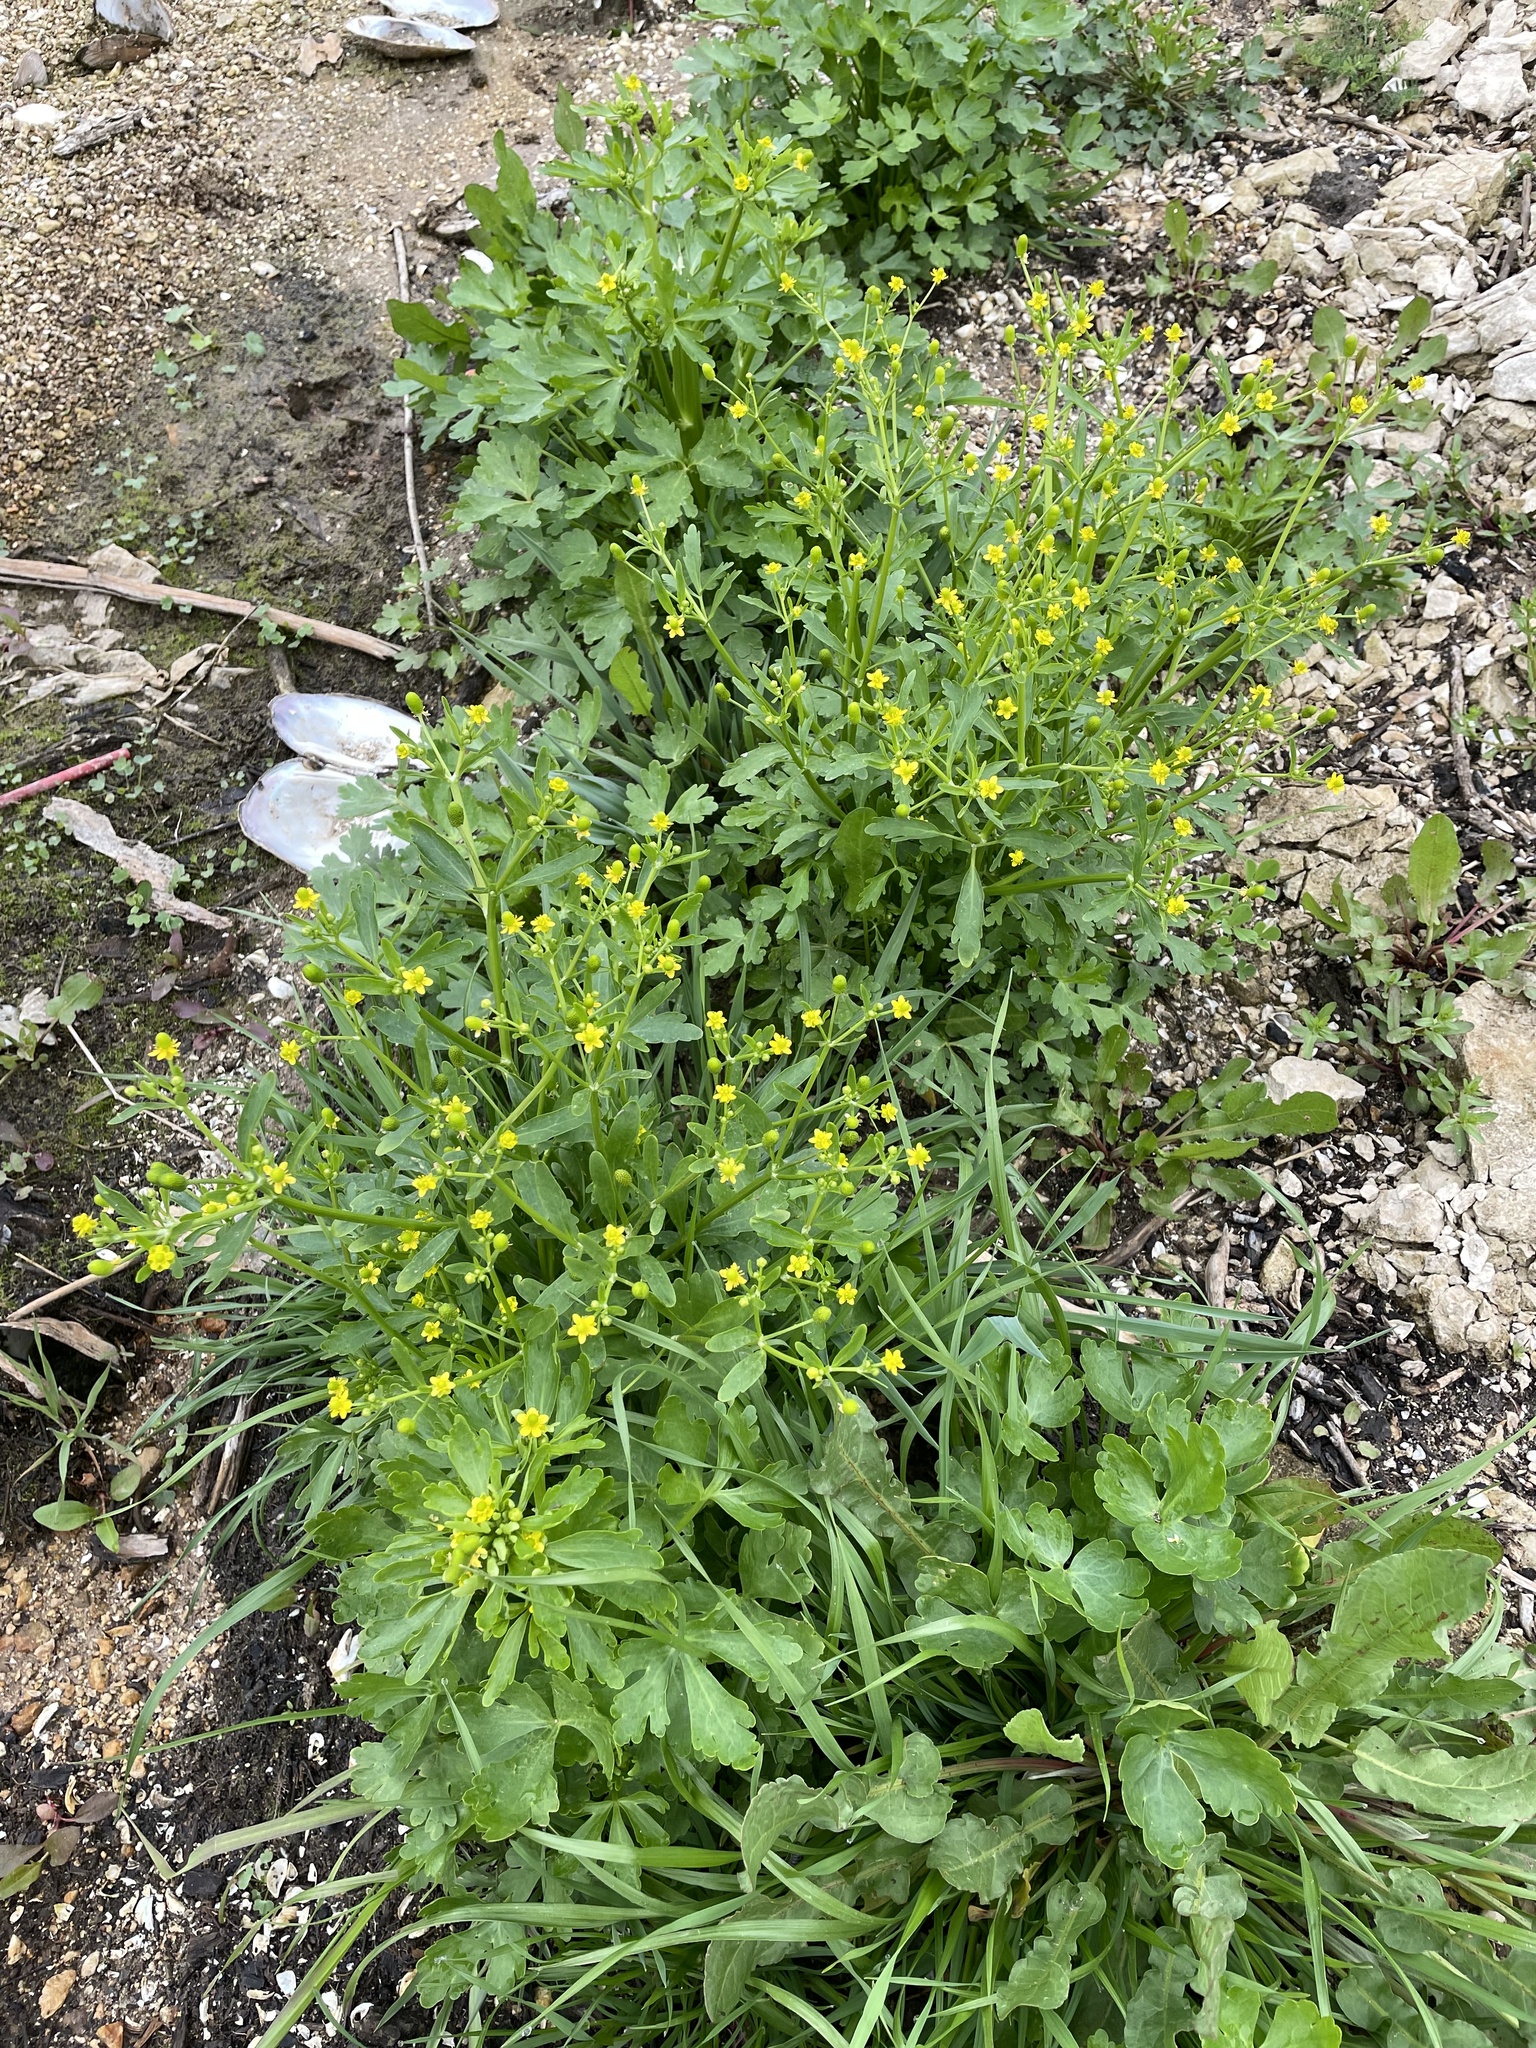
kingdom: Plantae
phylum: Tracheophyta
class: Magnoliopsida
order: Ranunculales
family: Ranunculaceae
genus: Ranunculus
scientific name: Ranunculus sceleratus
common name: Celery-leaved buttercup
